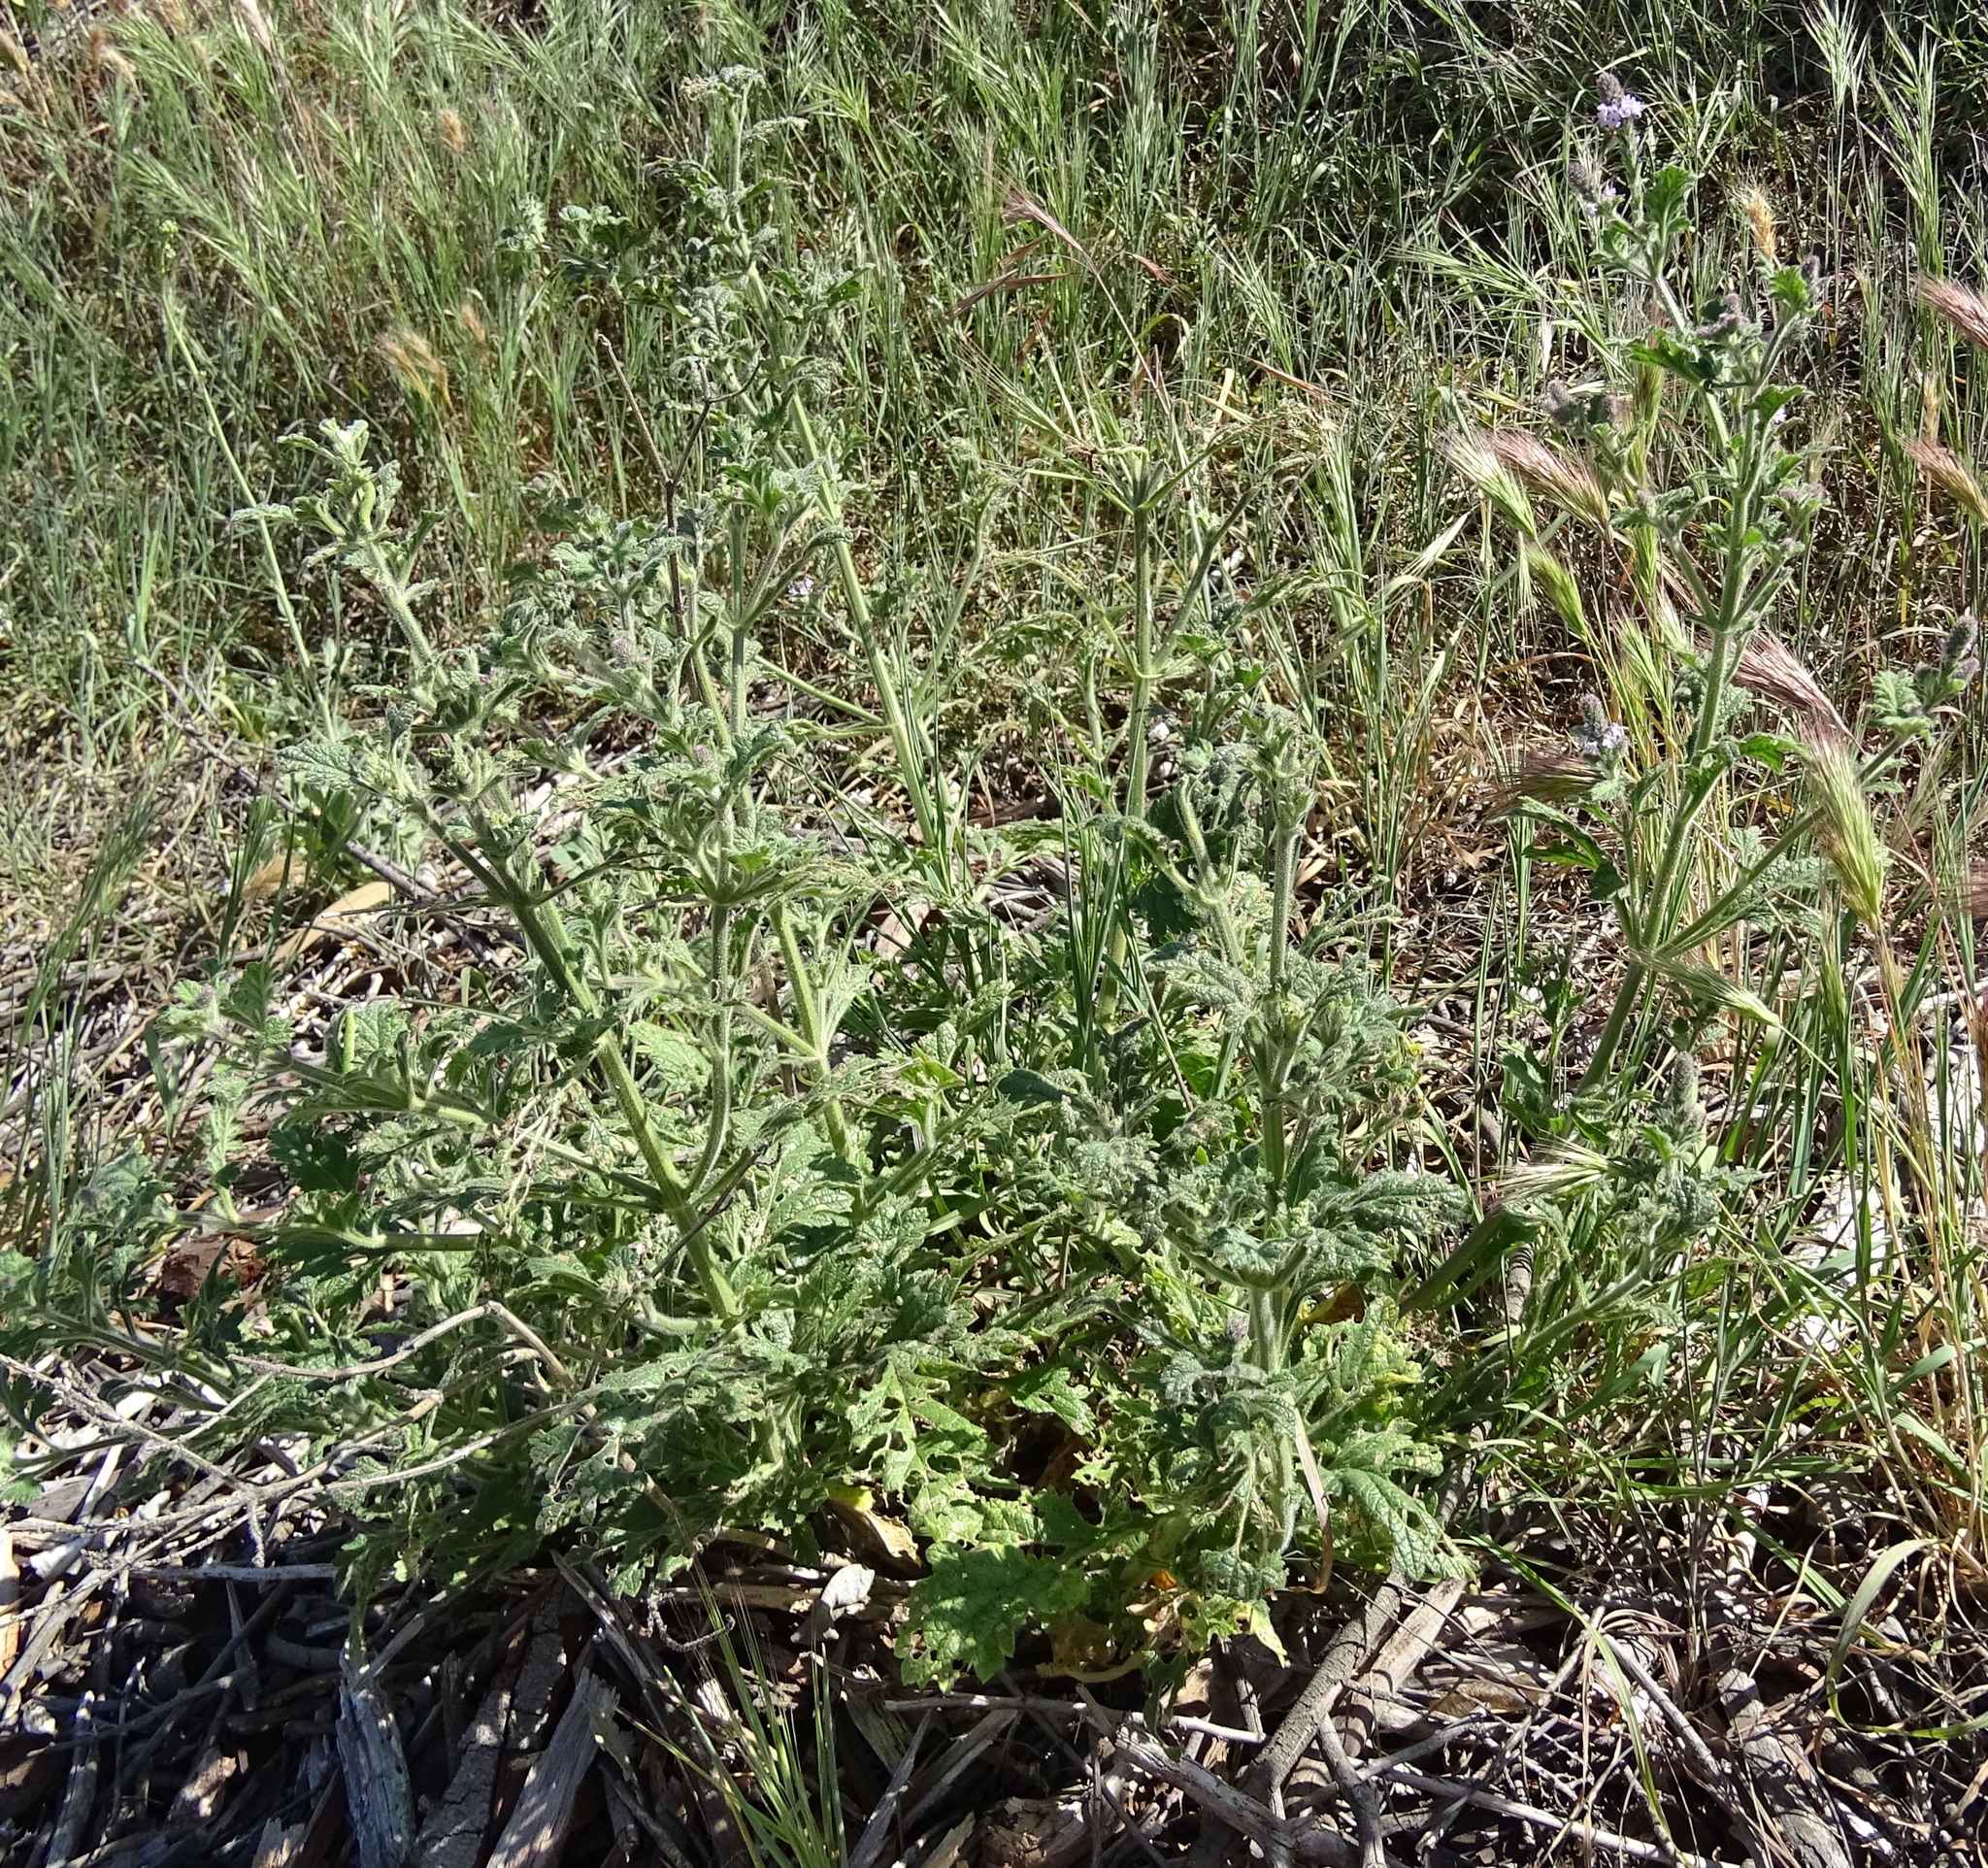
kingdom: Plantae
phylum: Tracheophyta
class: Magnoliopsida
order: Lamiales
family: Verbenaceae
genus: Verbena
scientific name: Verbena lasiostachys
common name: Vervain
